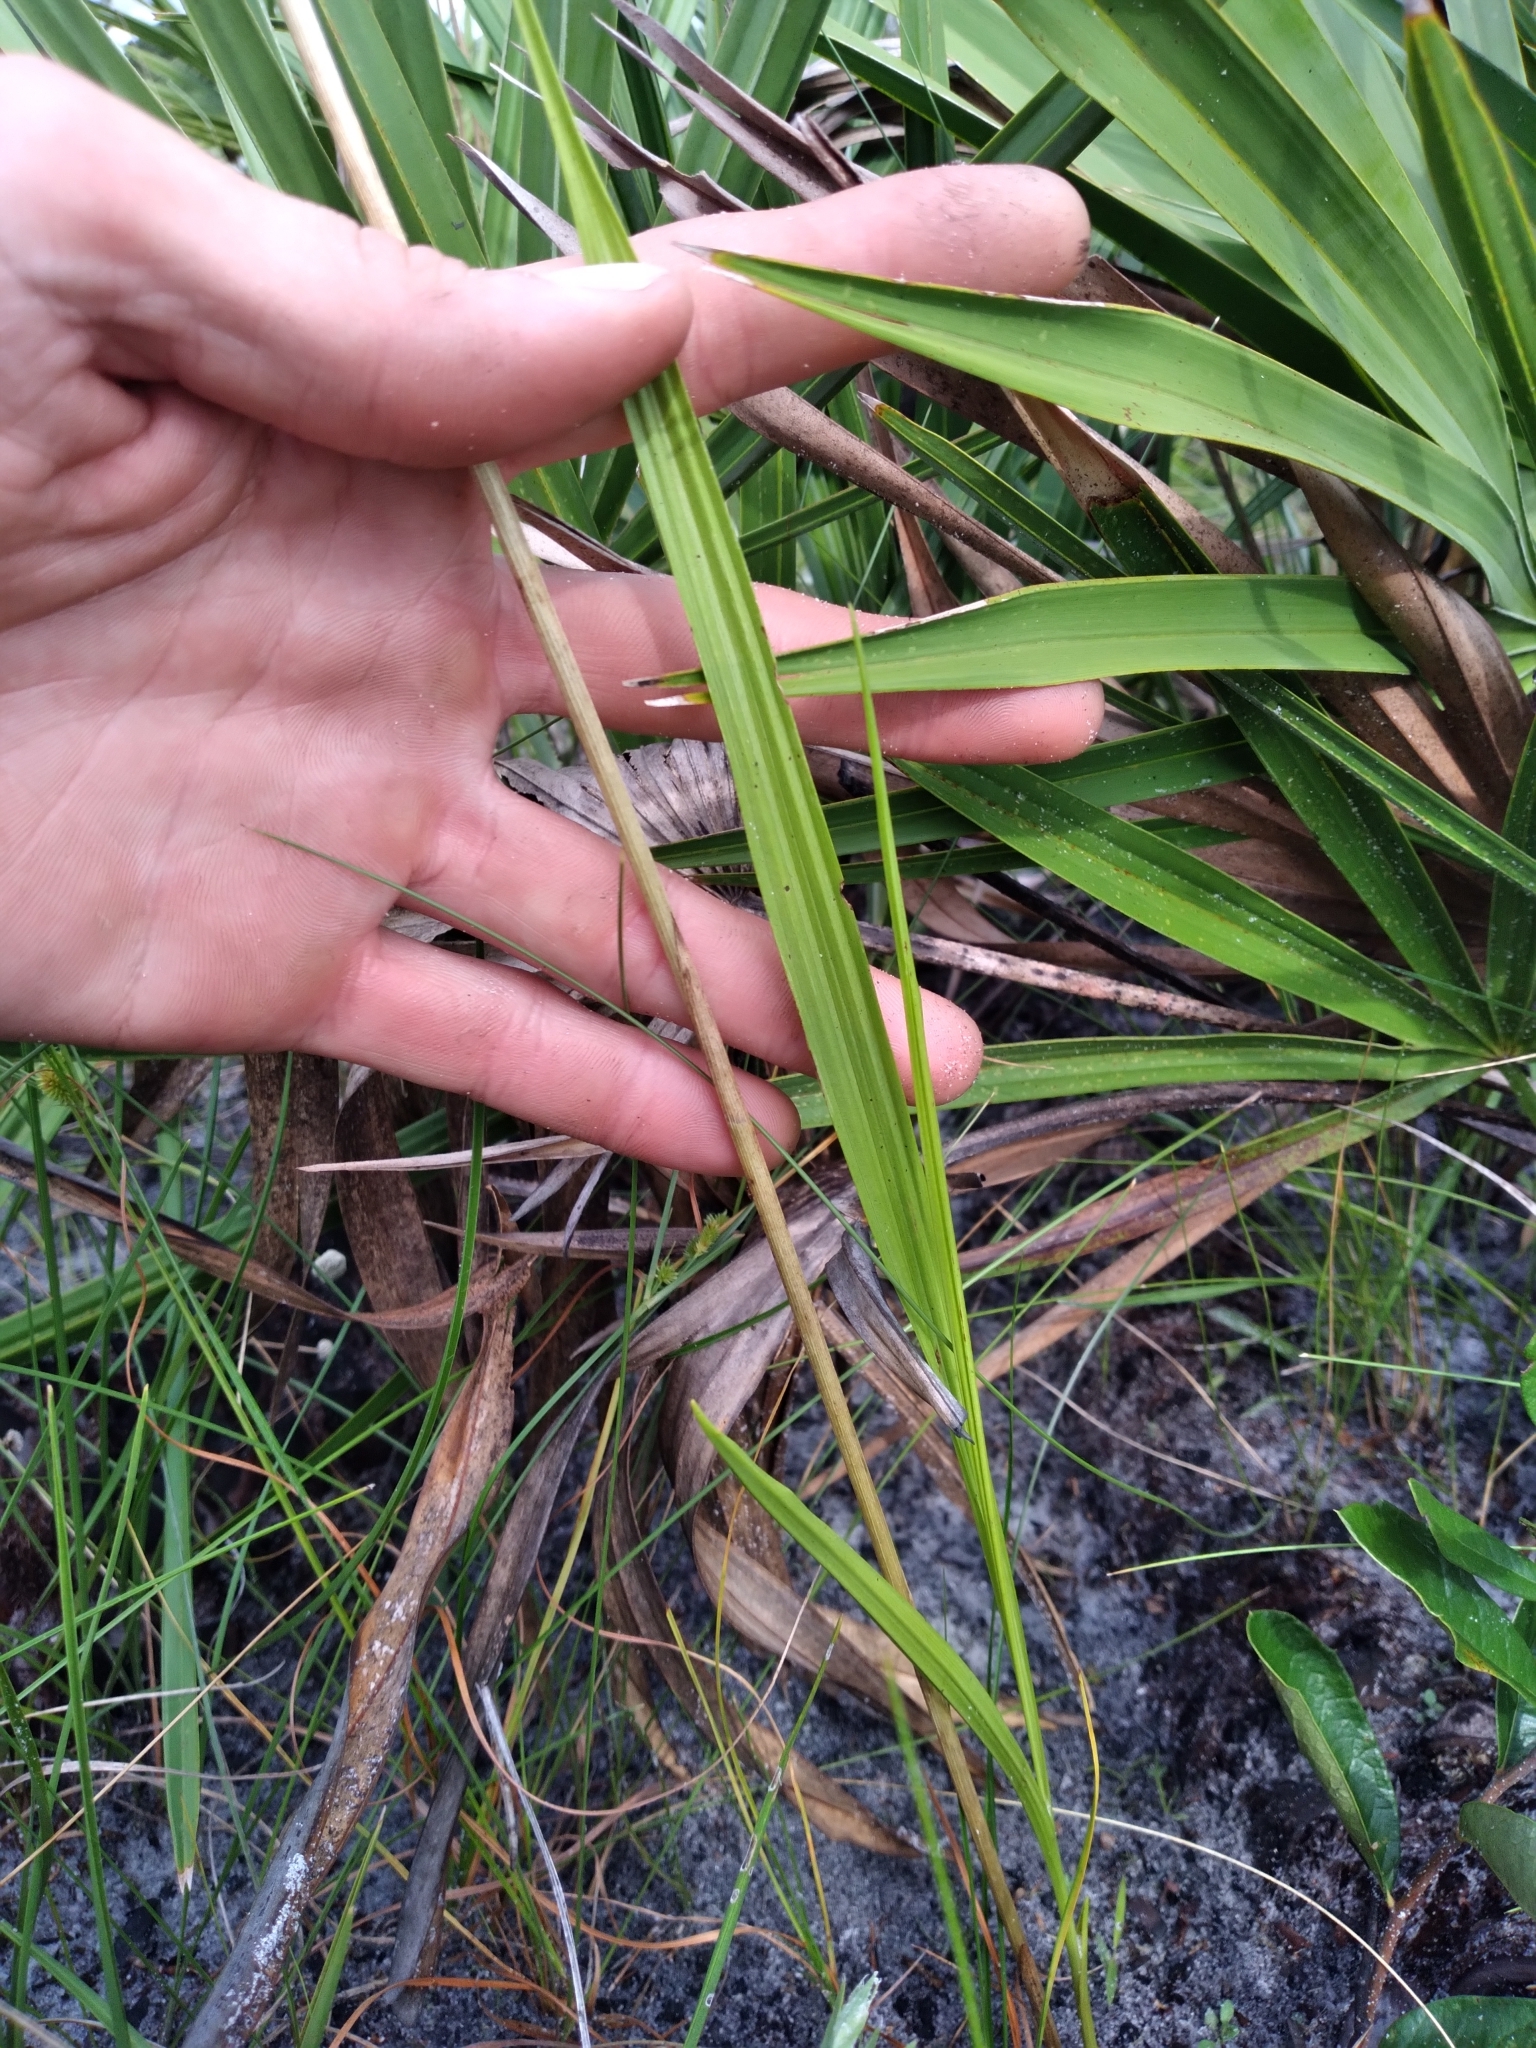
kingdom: Plantae
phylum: Tracheophyta
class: Liliopsida
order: Asparagales
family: Orchidaceae
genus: Eulophia
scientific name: Eulophia ecristata
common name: Giant orchid
